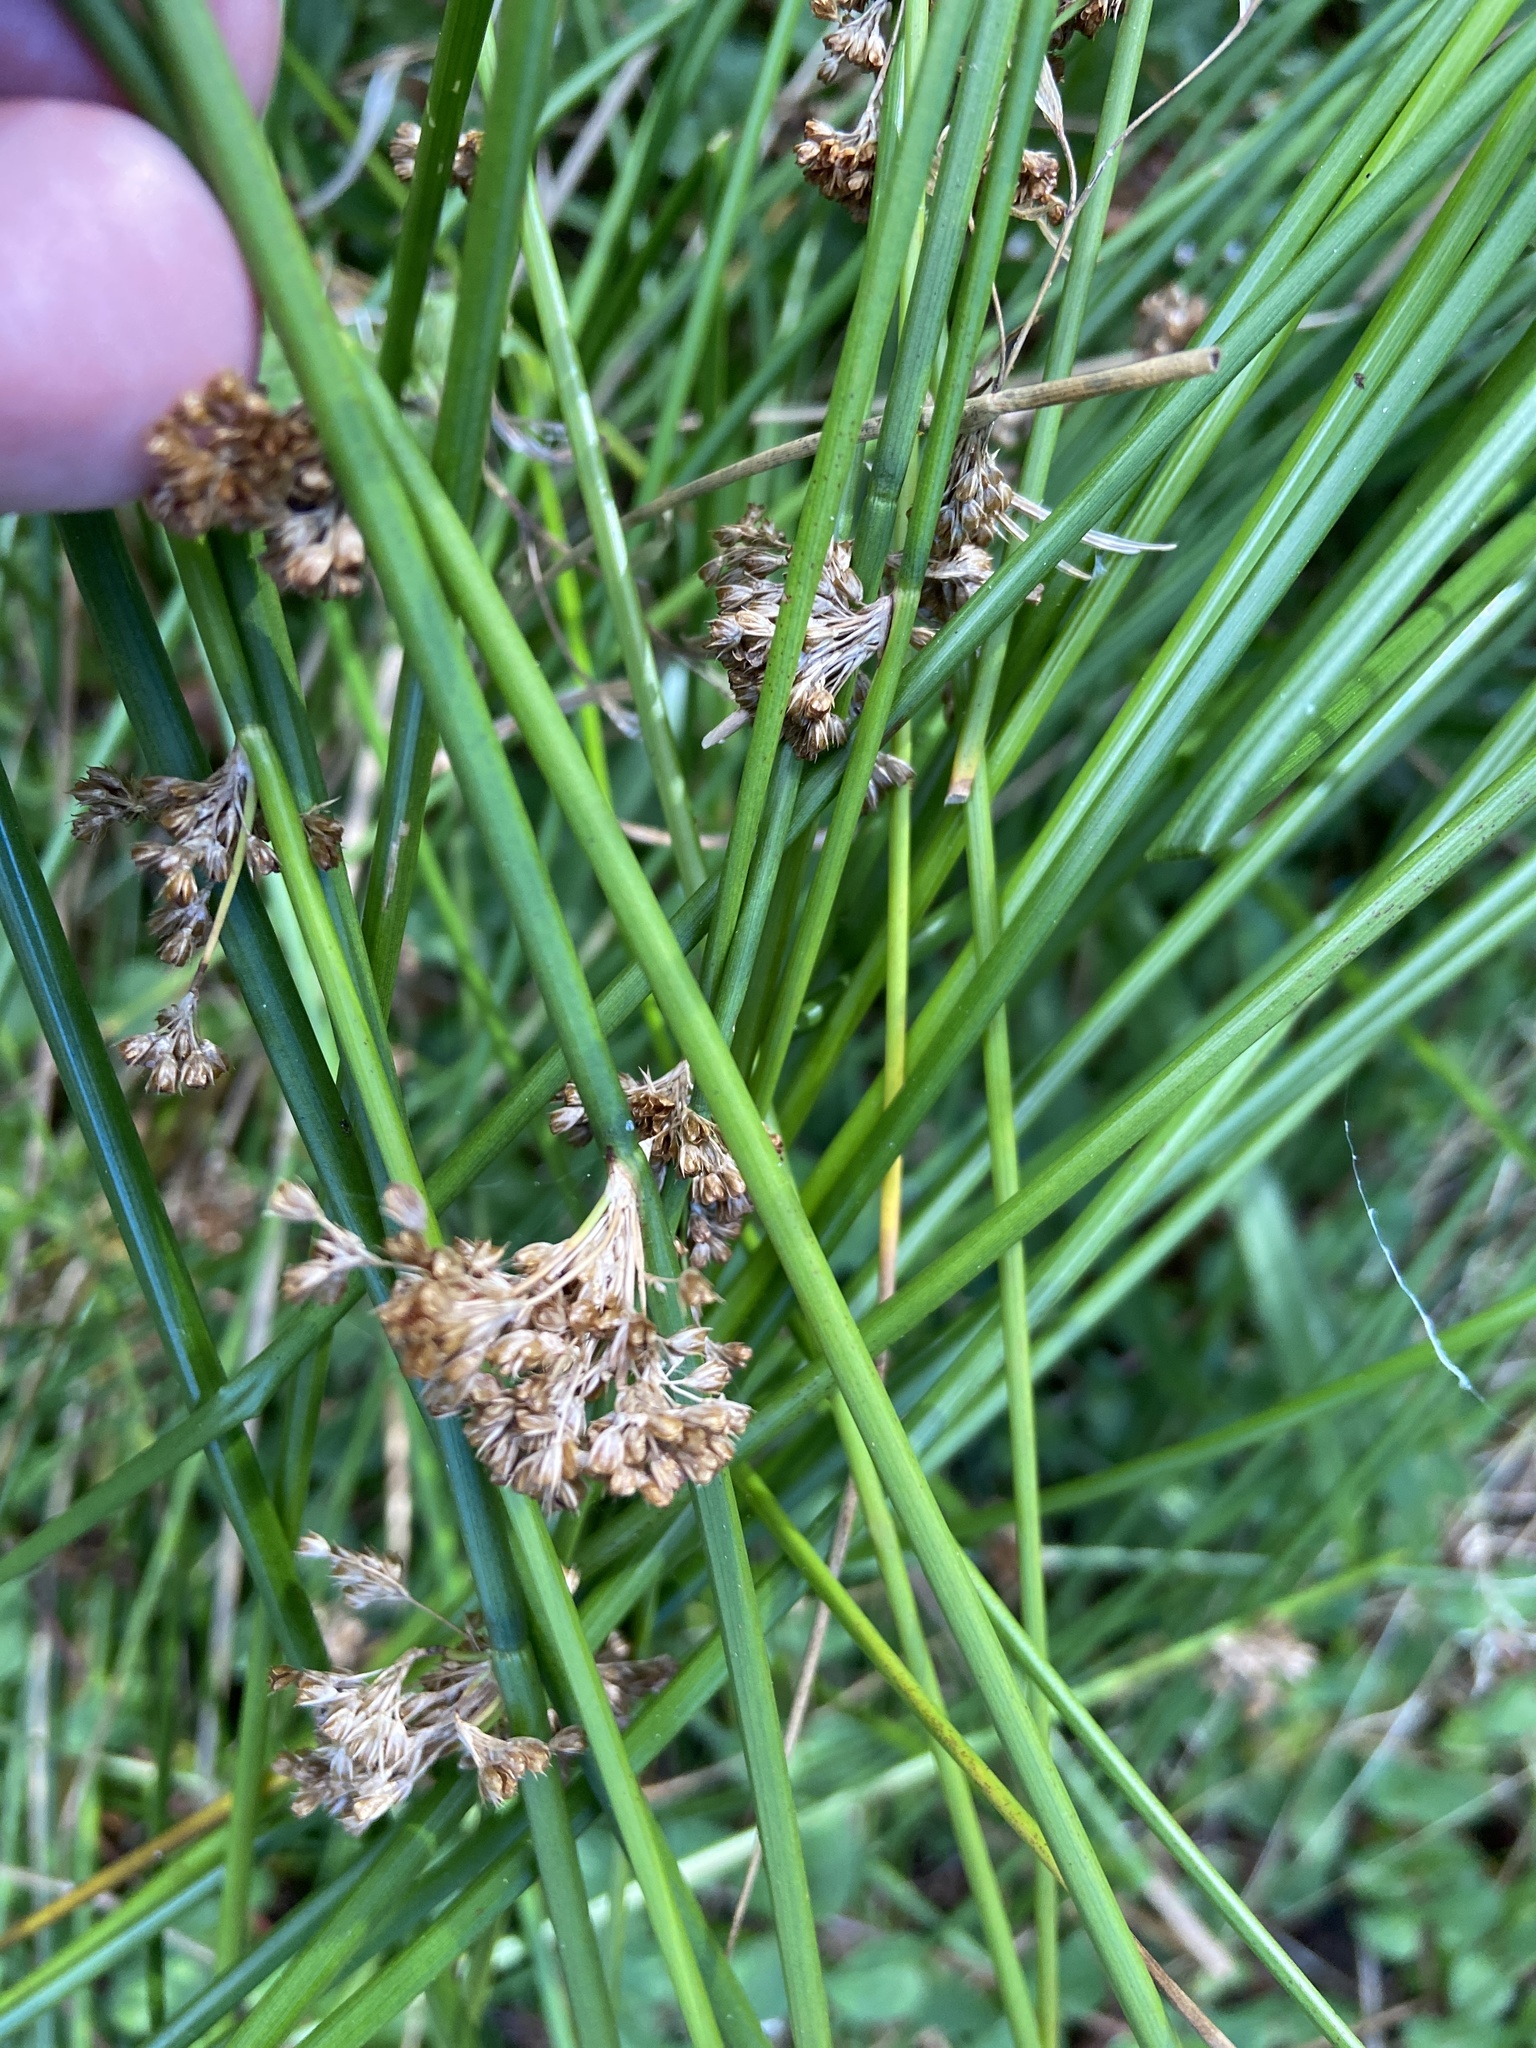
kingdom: Plantae
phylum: Tracheophyta
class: Liliopsida
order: Poales
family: Juncaceae
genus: Juncus
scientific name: Juncus effusus
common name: Soft rush
